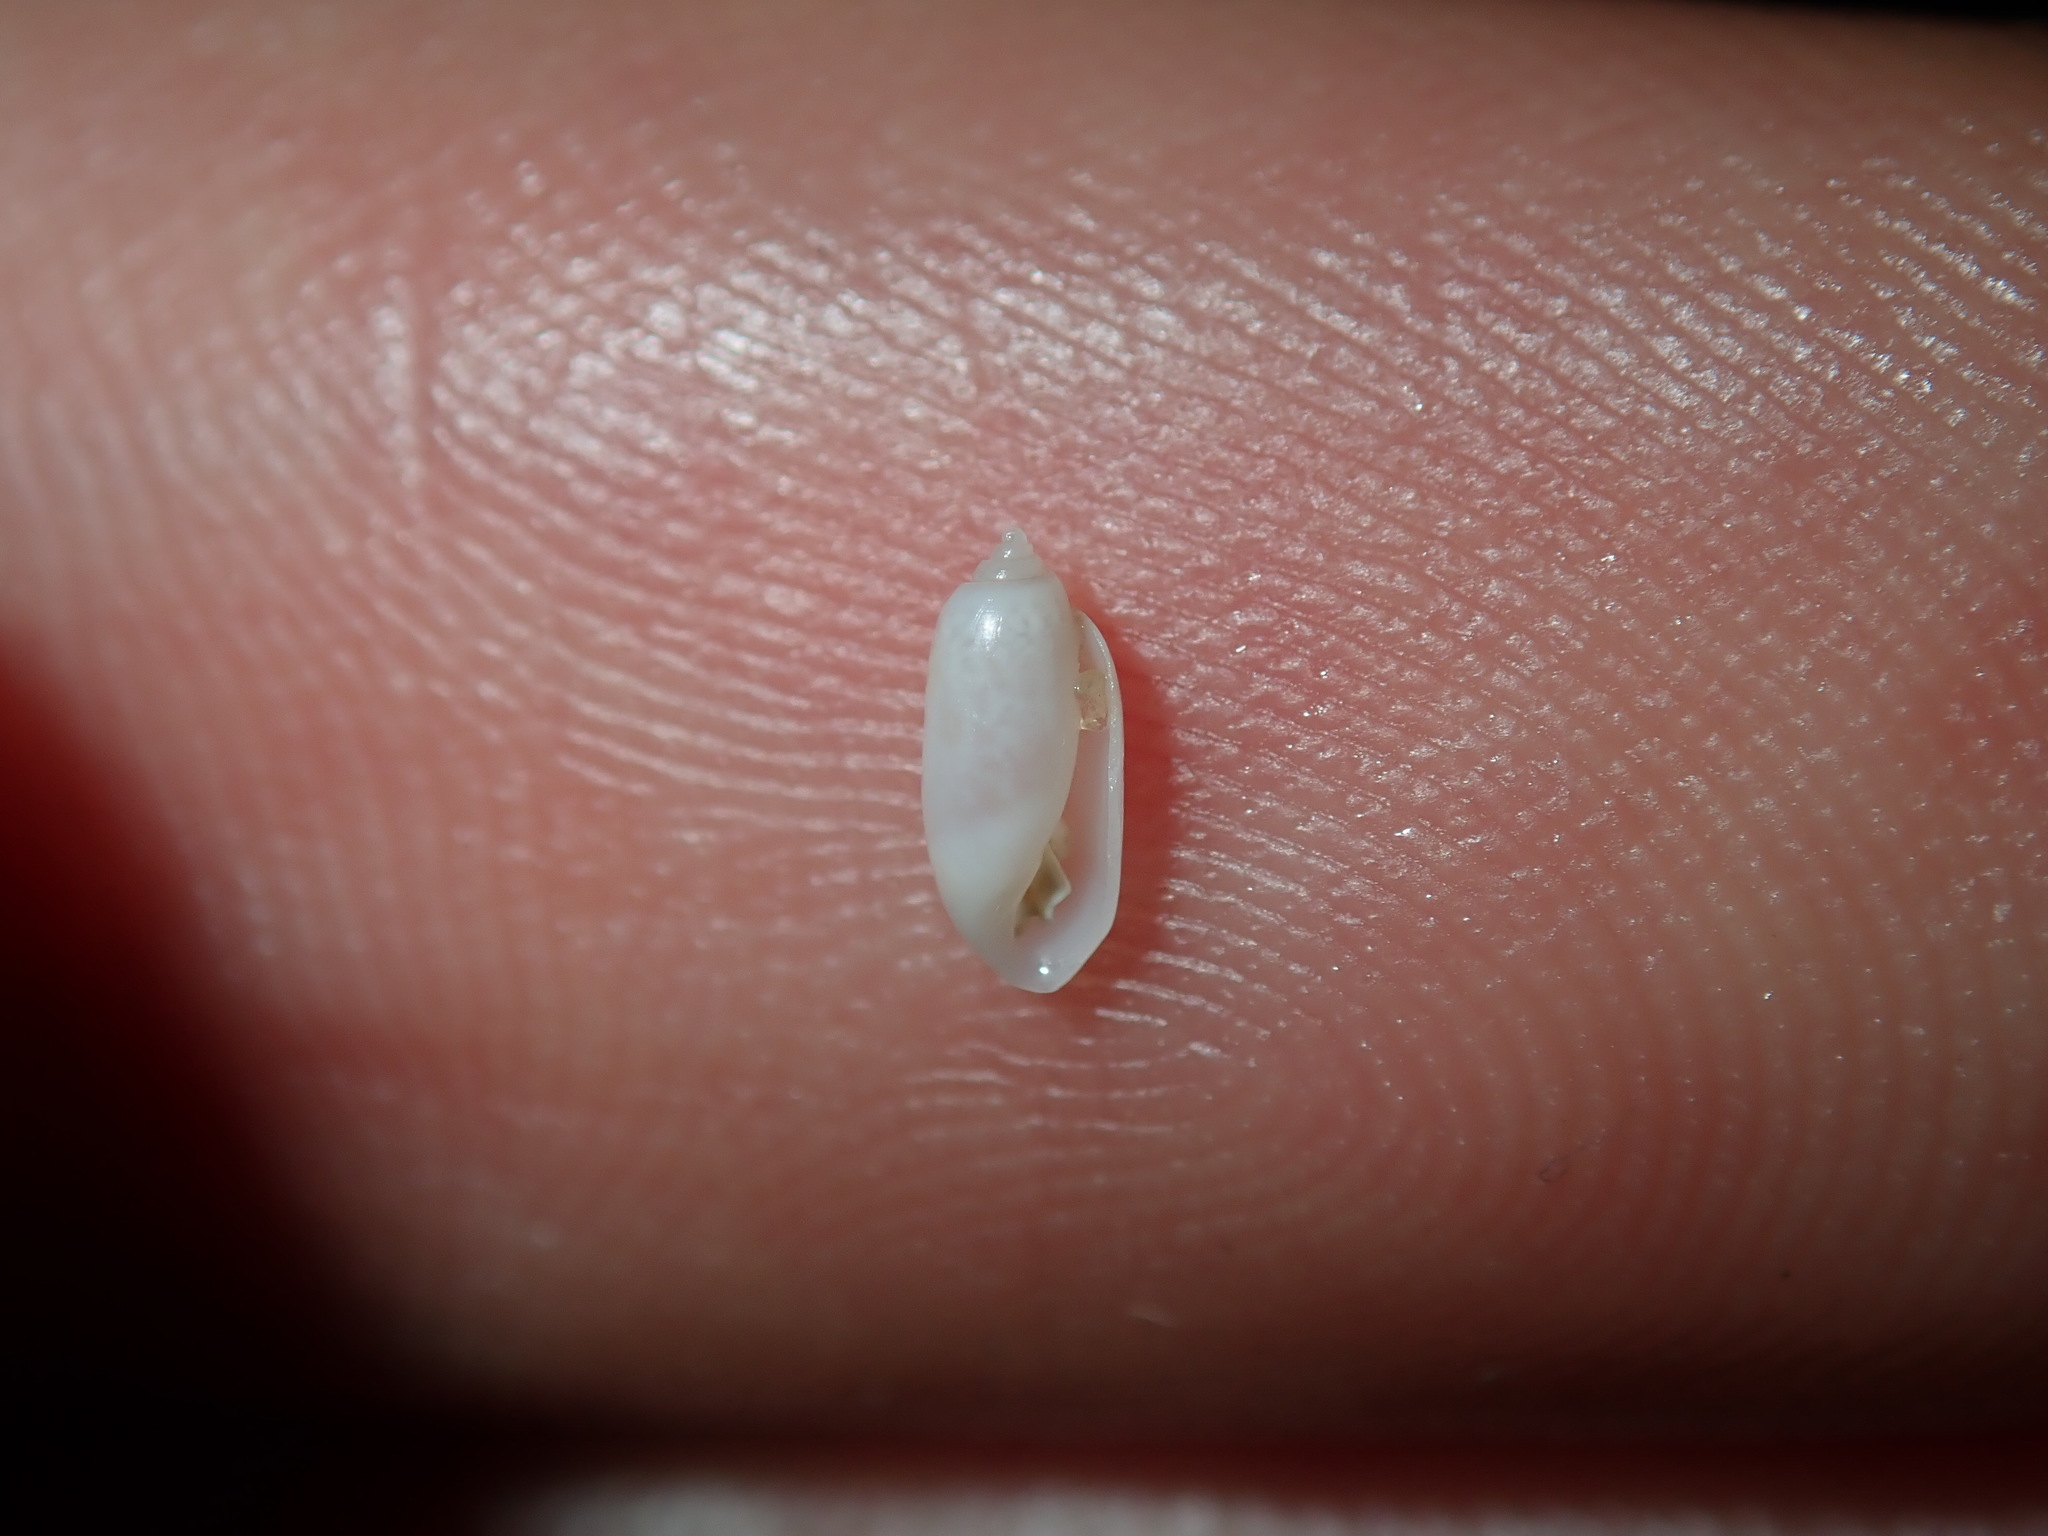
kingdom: Animalia
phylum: Mollusca
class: Gastropoda
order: Cephalaspidea
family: Tornatinidae
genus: Acteocina
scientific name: Acteocina apicina
